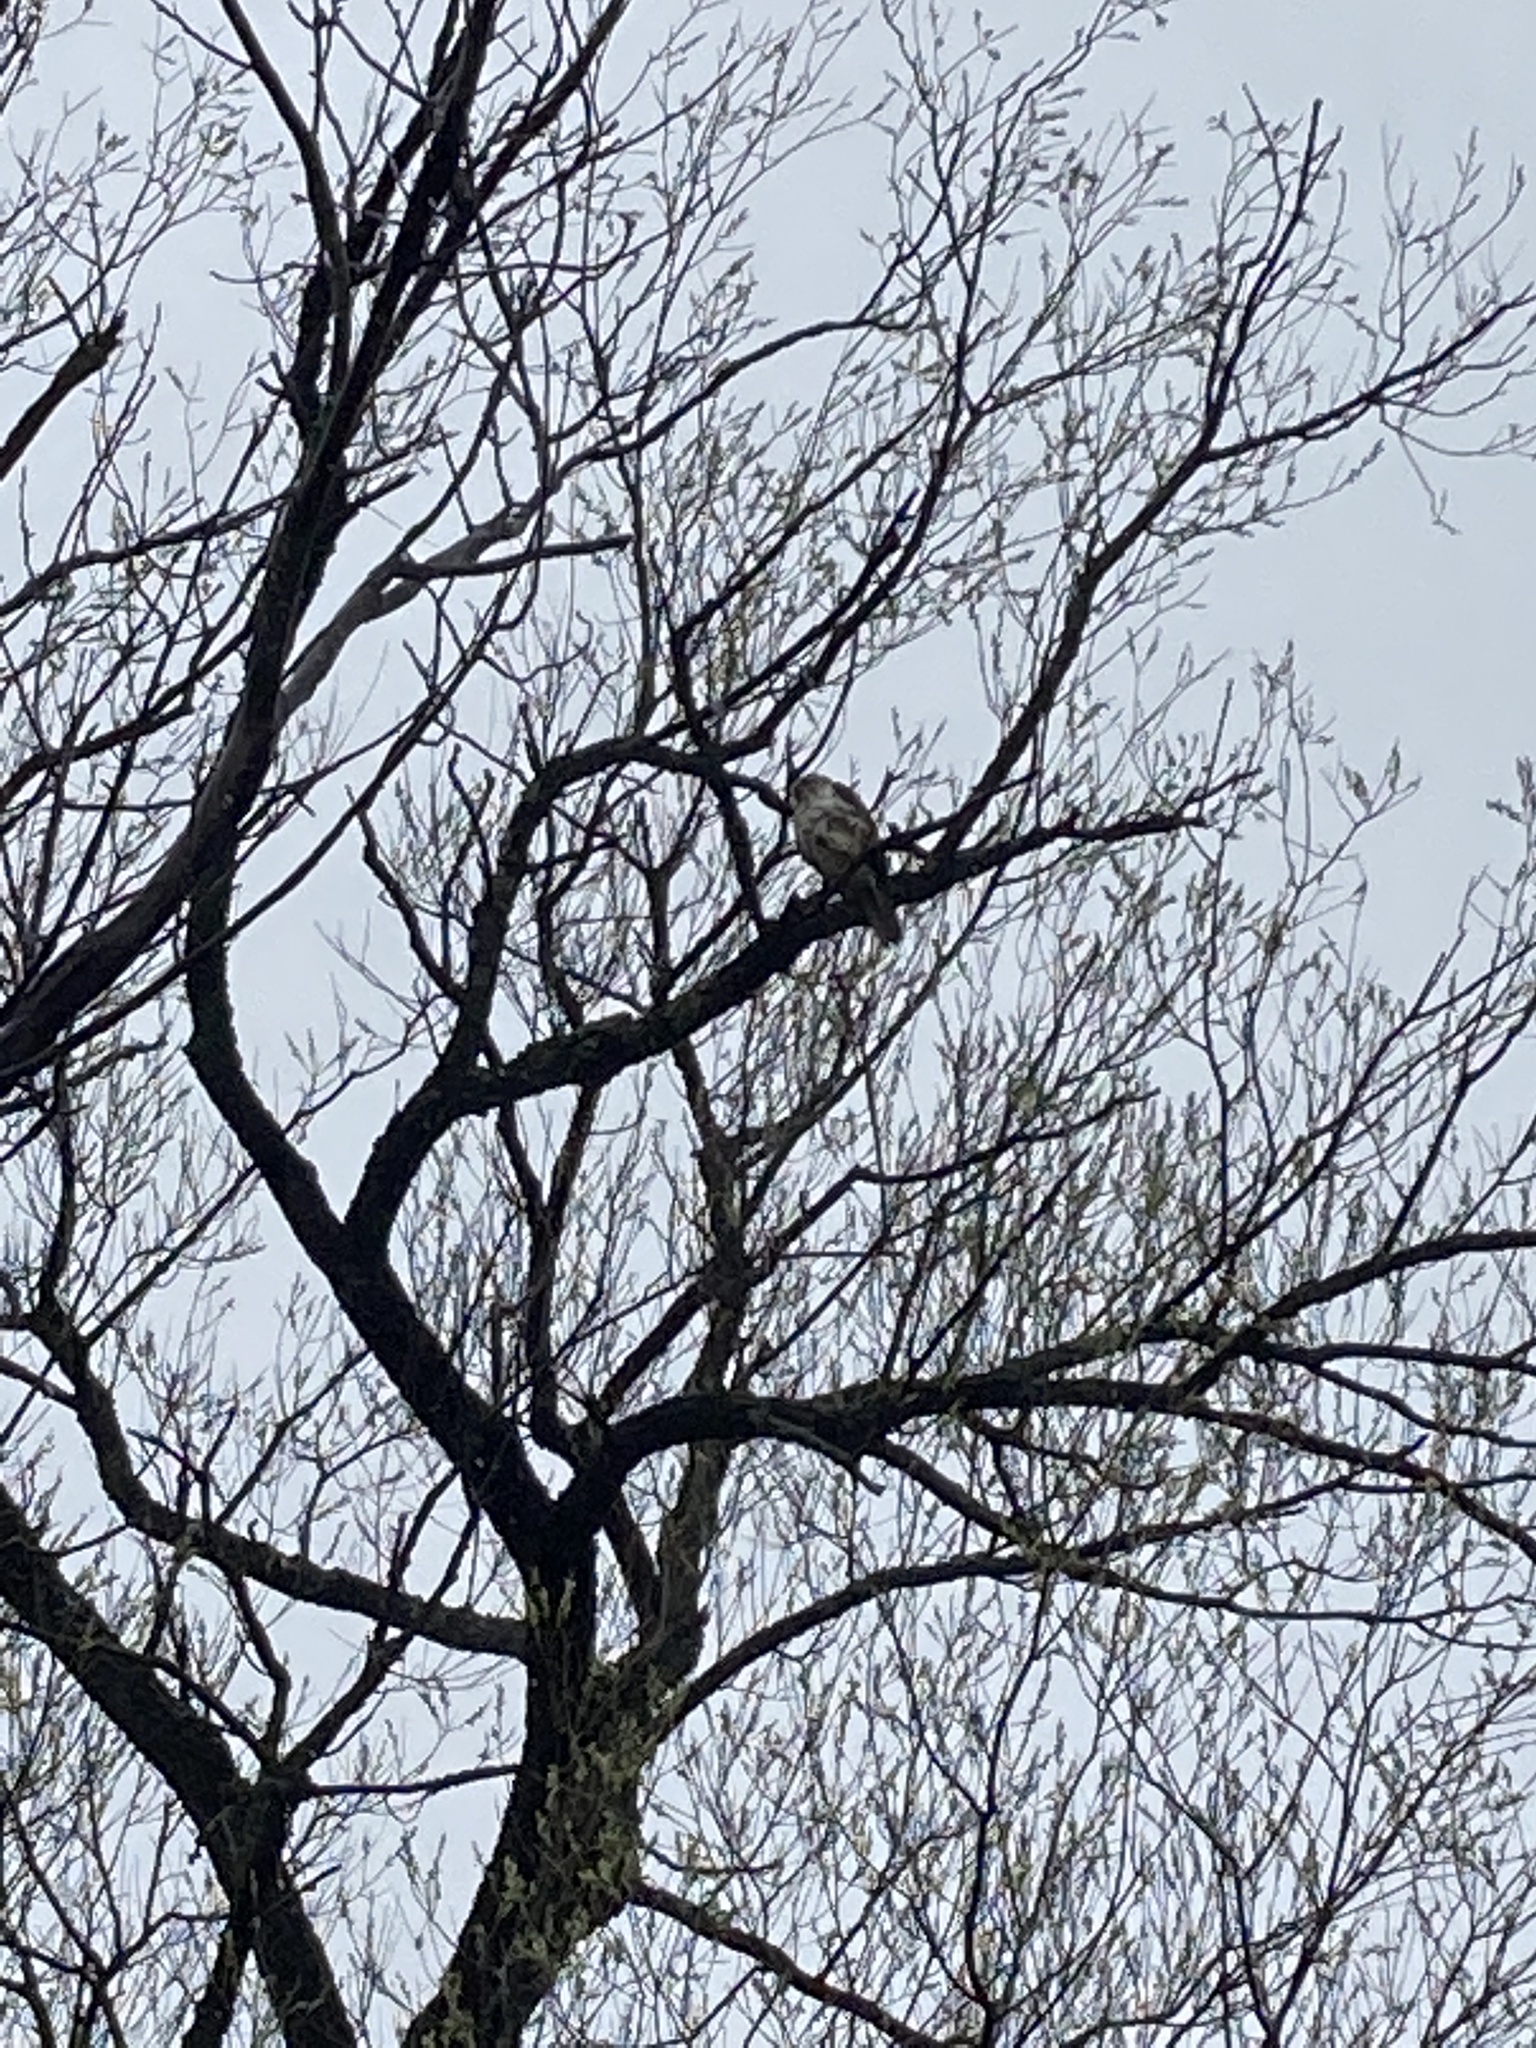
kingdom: Animalia
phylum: Chordata
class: Aves
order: Accipitriformes
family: Accipitridae
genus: Buteo
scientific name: Buteo jamaicensis
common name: Red-tailed hawk
